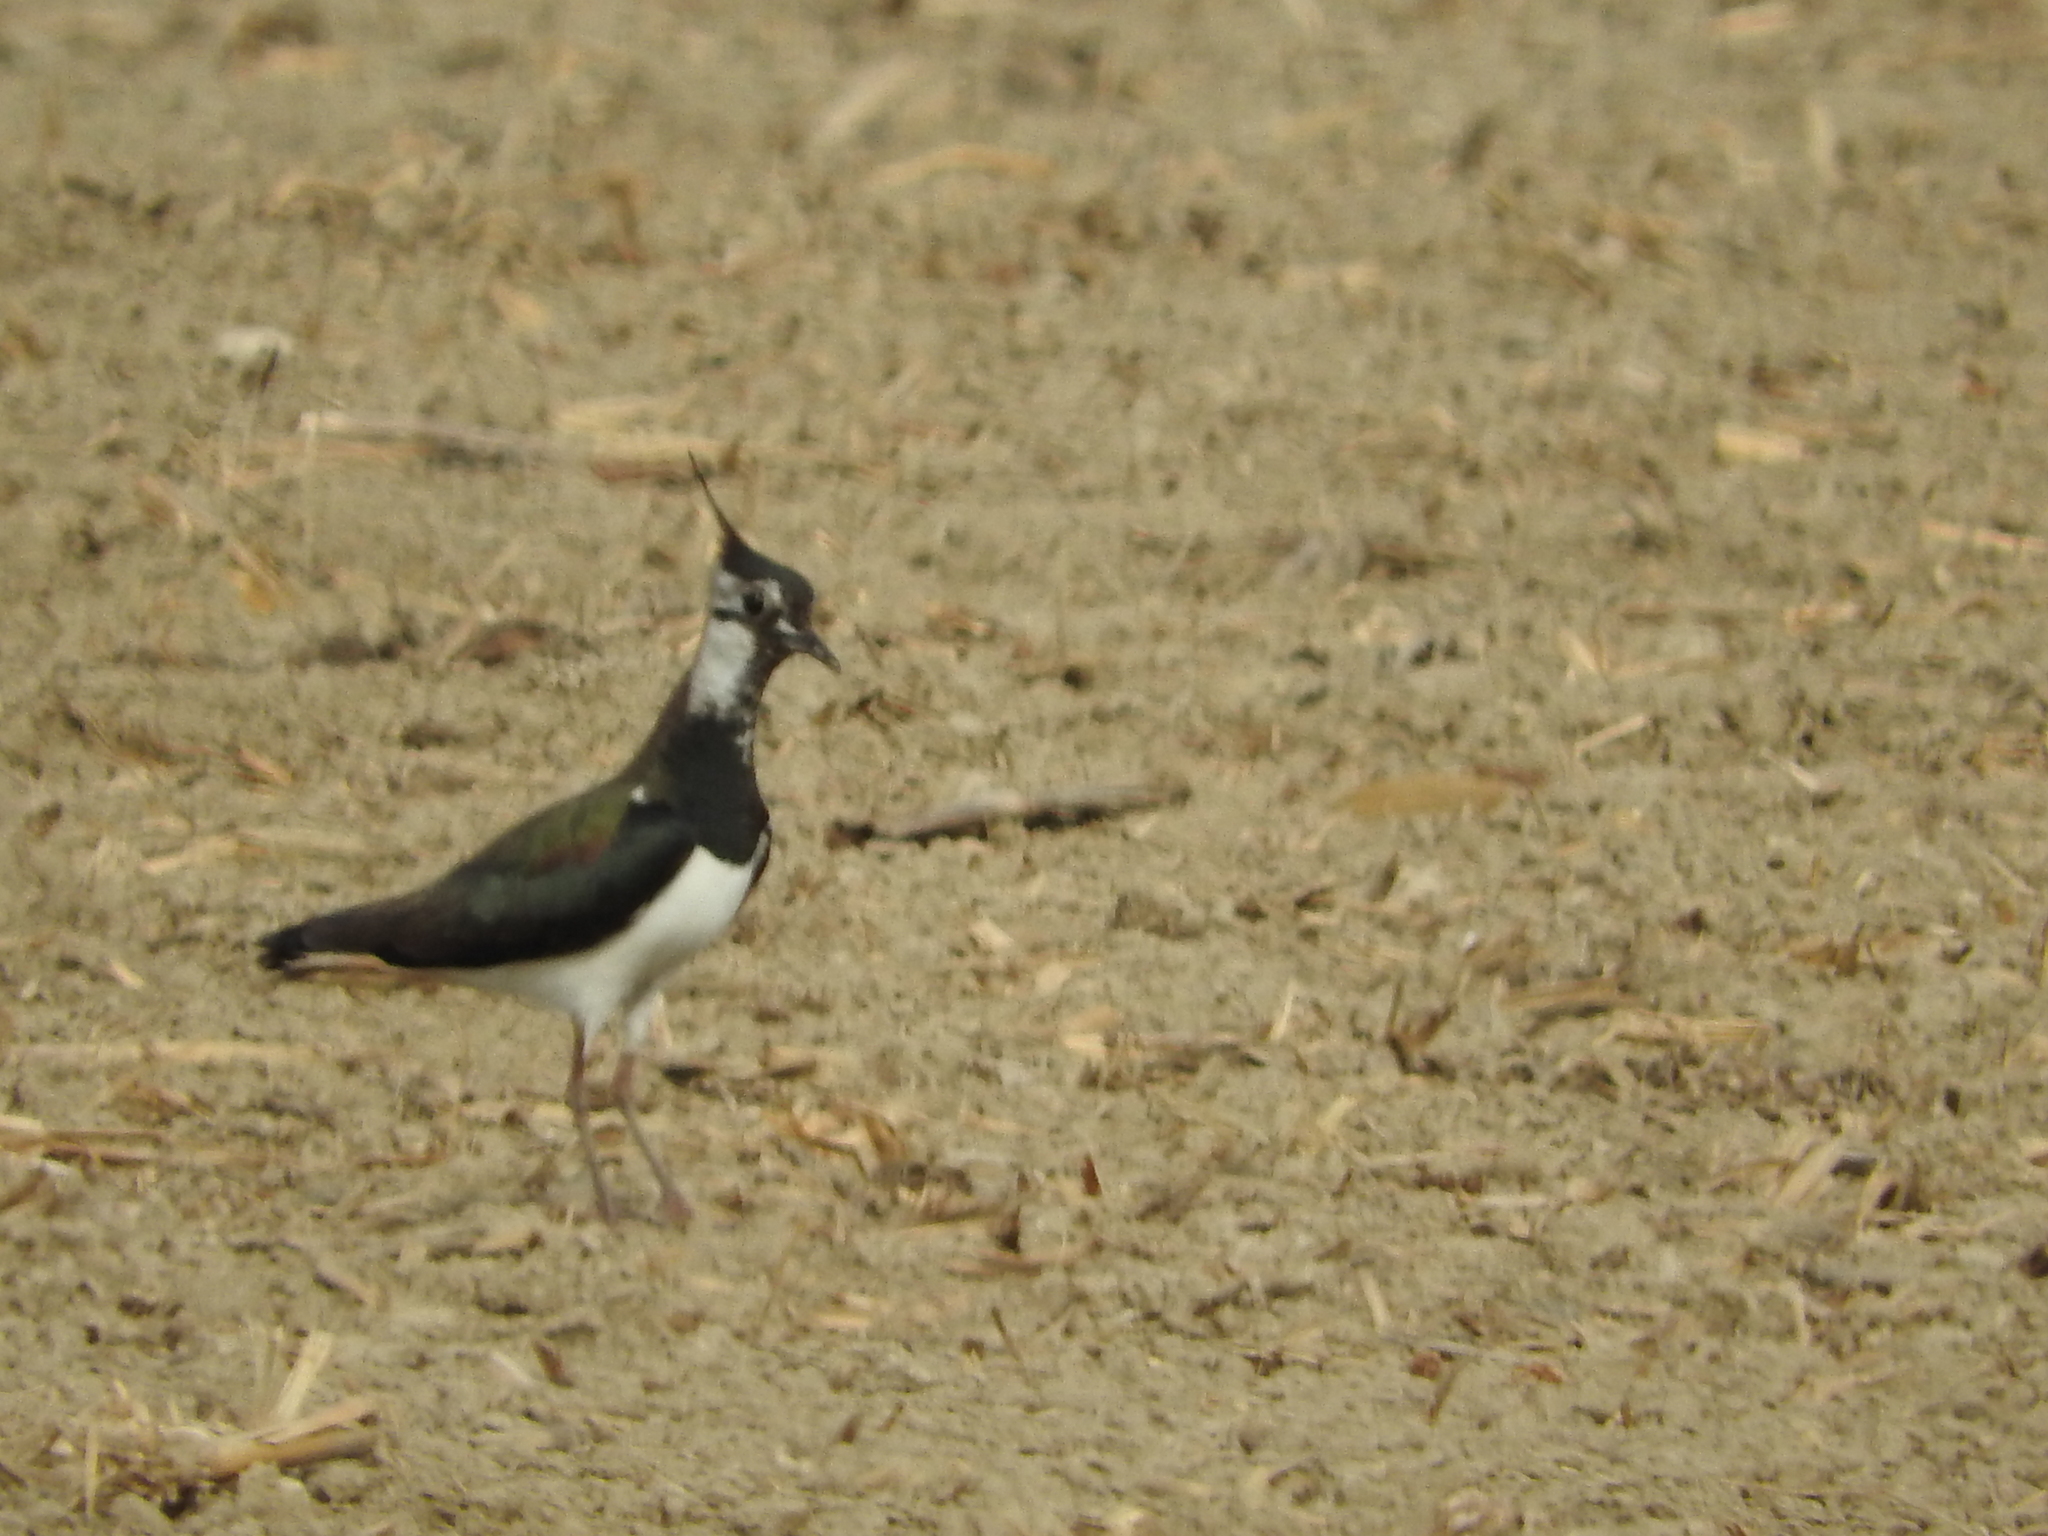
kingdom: Animalia
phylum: Chordata
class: Aves
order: Charadriiformes
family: Charadriidae
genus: Vanellus
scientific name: Vanellus vanellus
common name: Northern lapwing
